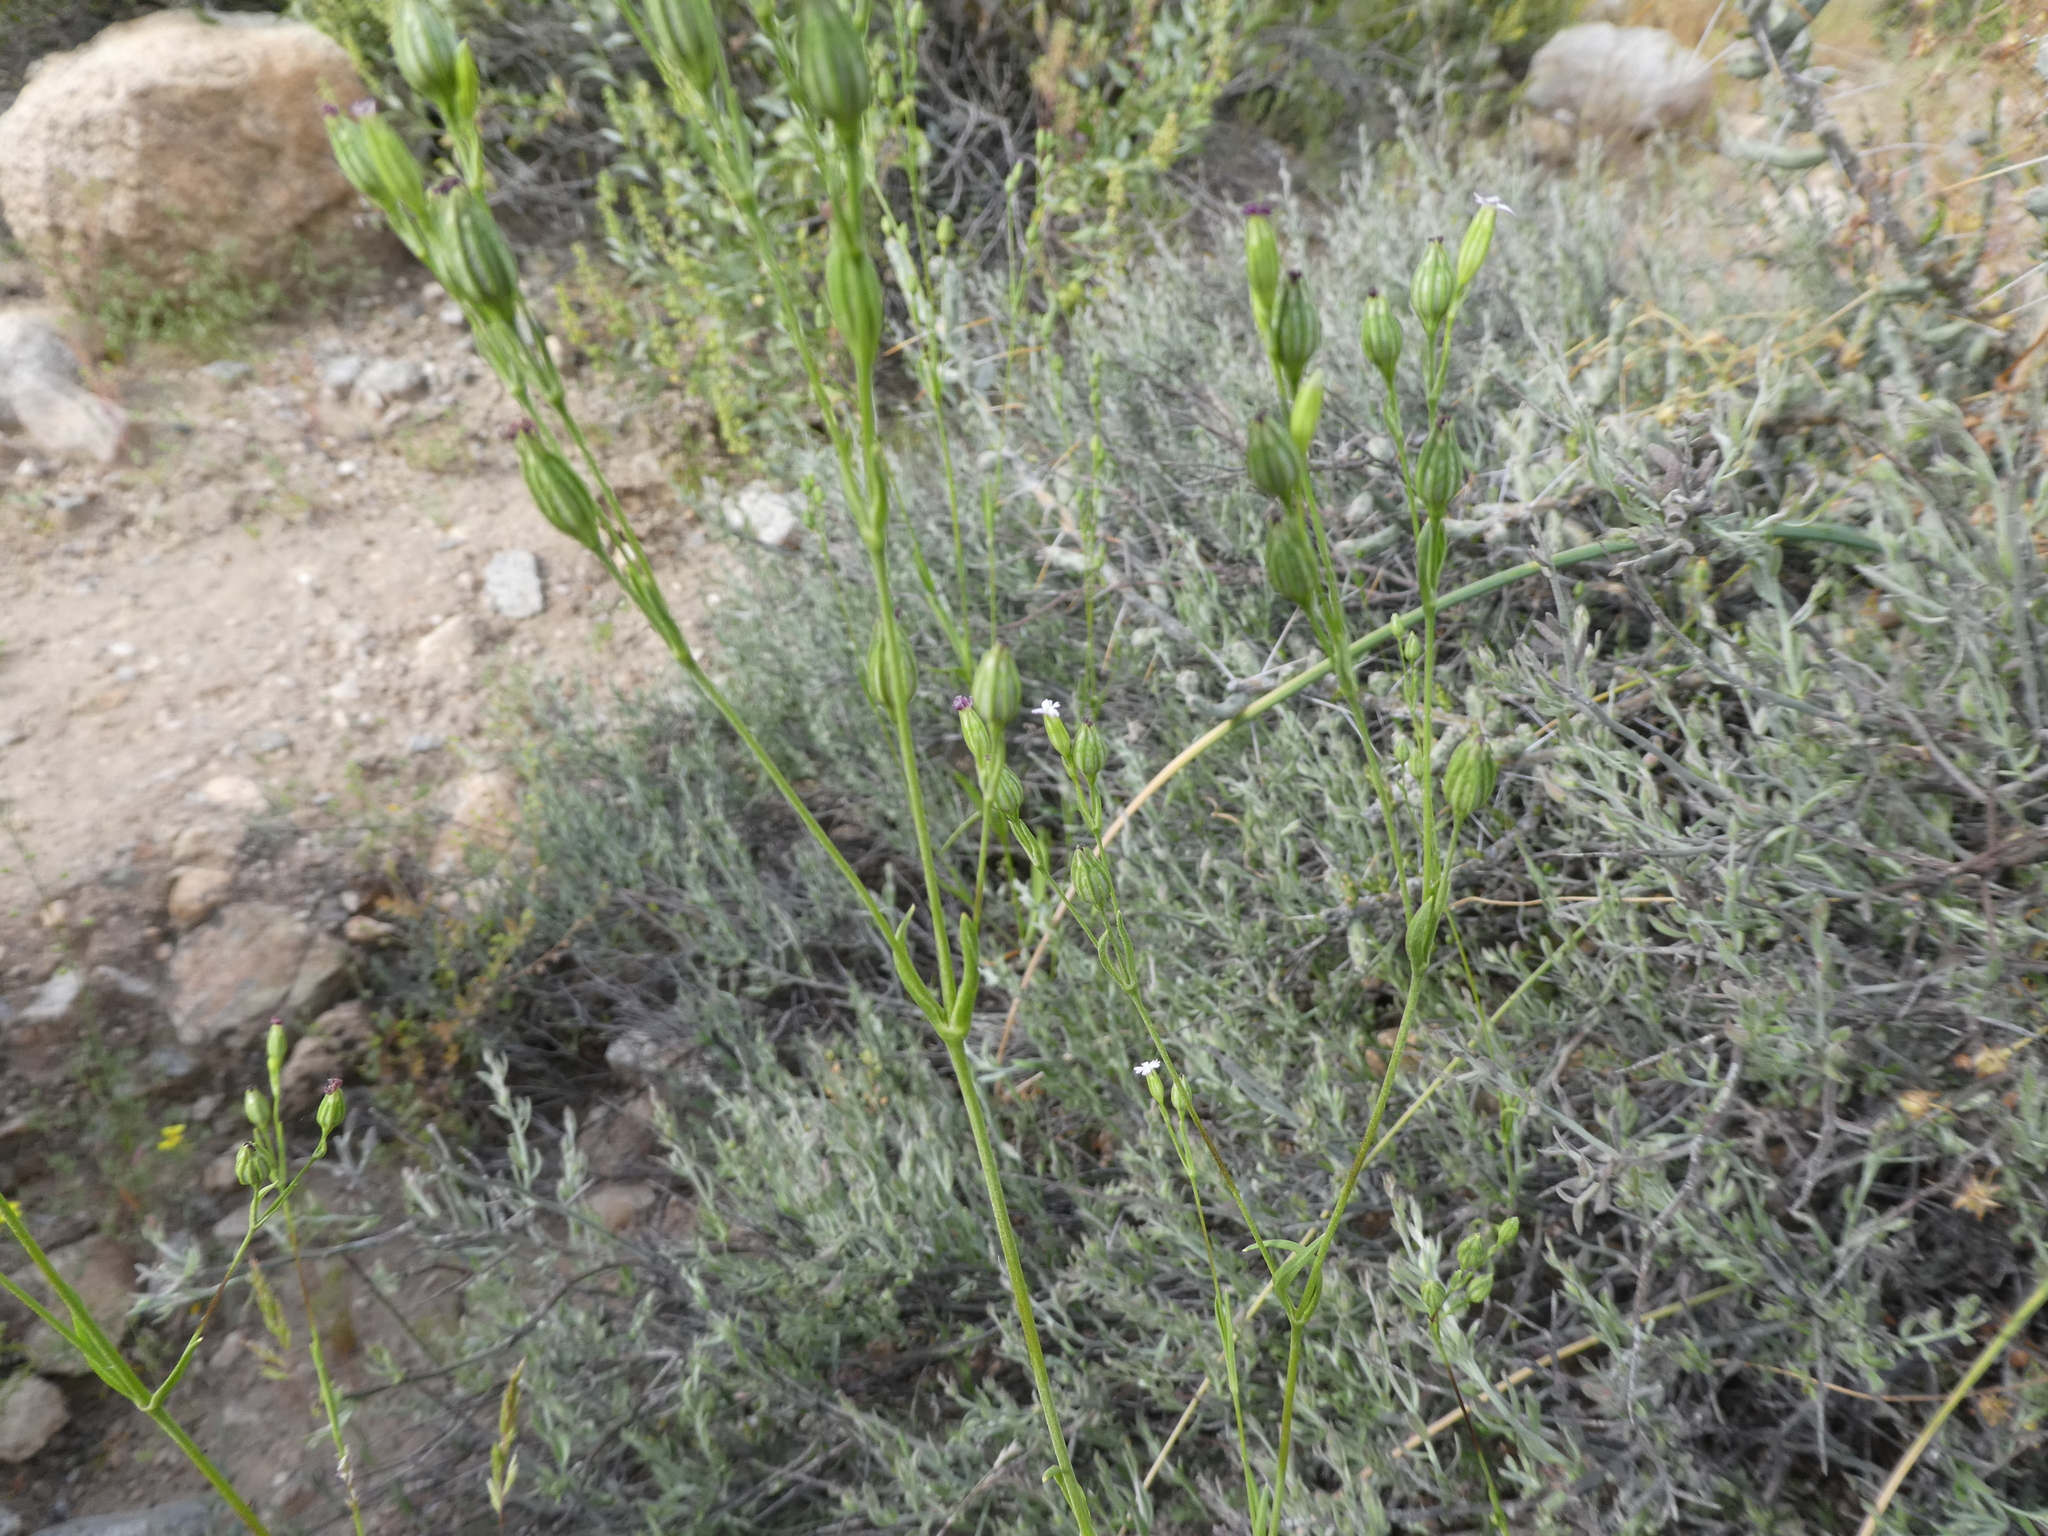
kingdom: Plantae
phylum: Tracheophyta
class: Magnoliopsida
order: Caryophyllales
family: Caryophyllaceae
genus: Silene
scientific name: Silene antirrhina
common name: Sleepy catchfly
